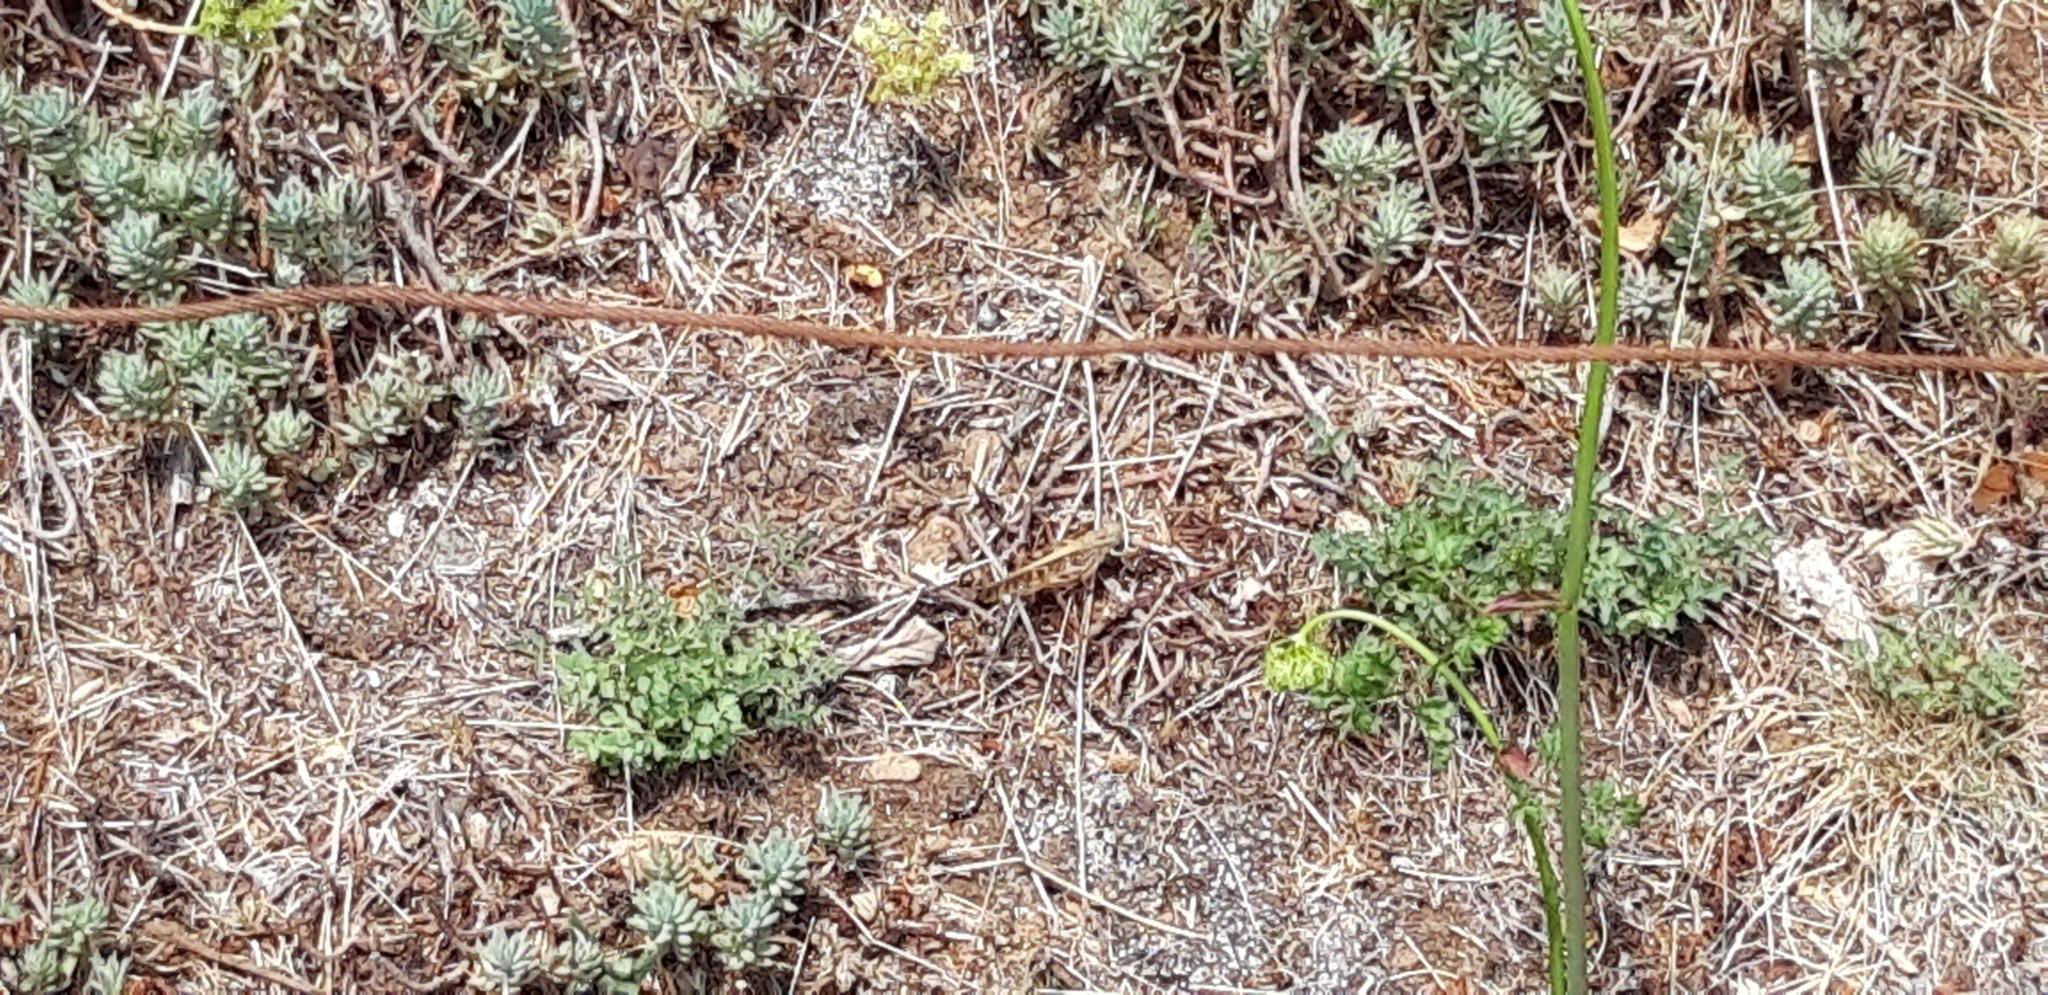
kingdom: Animalia
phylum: Arthropoda
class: Insecta
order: Orthoptera
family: Acrididae
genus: Locusta
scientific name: Locusta migratoria
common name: Migratory locust
